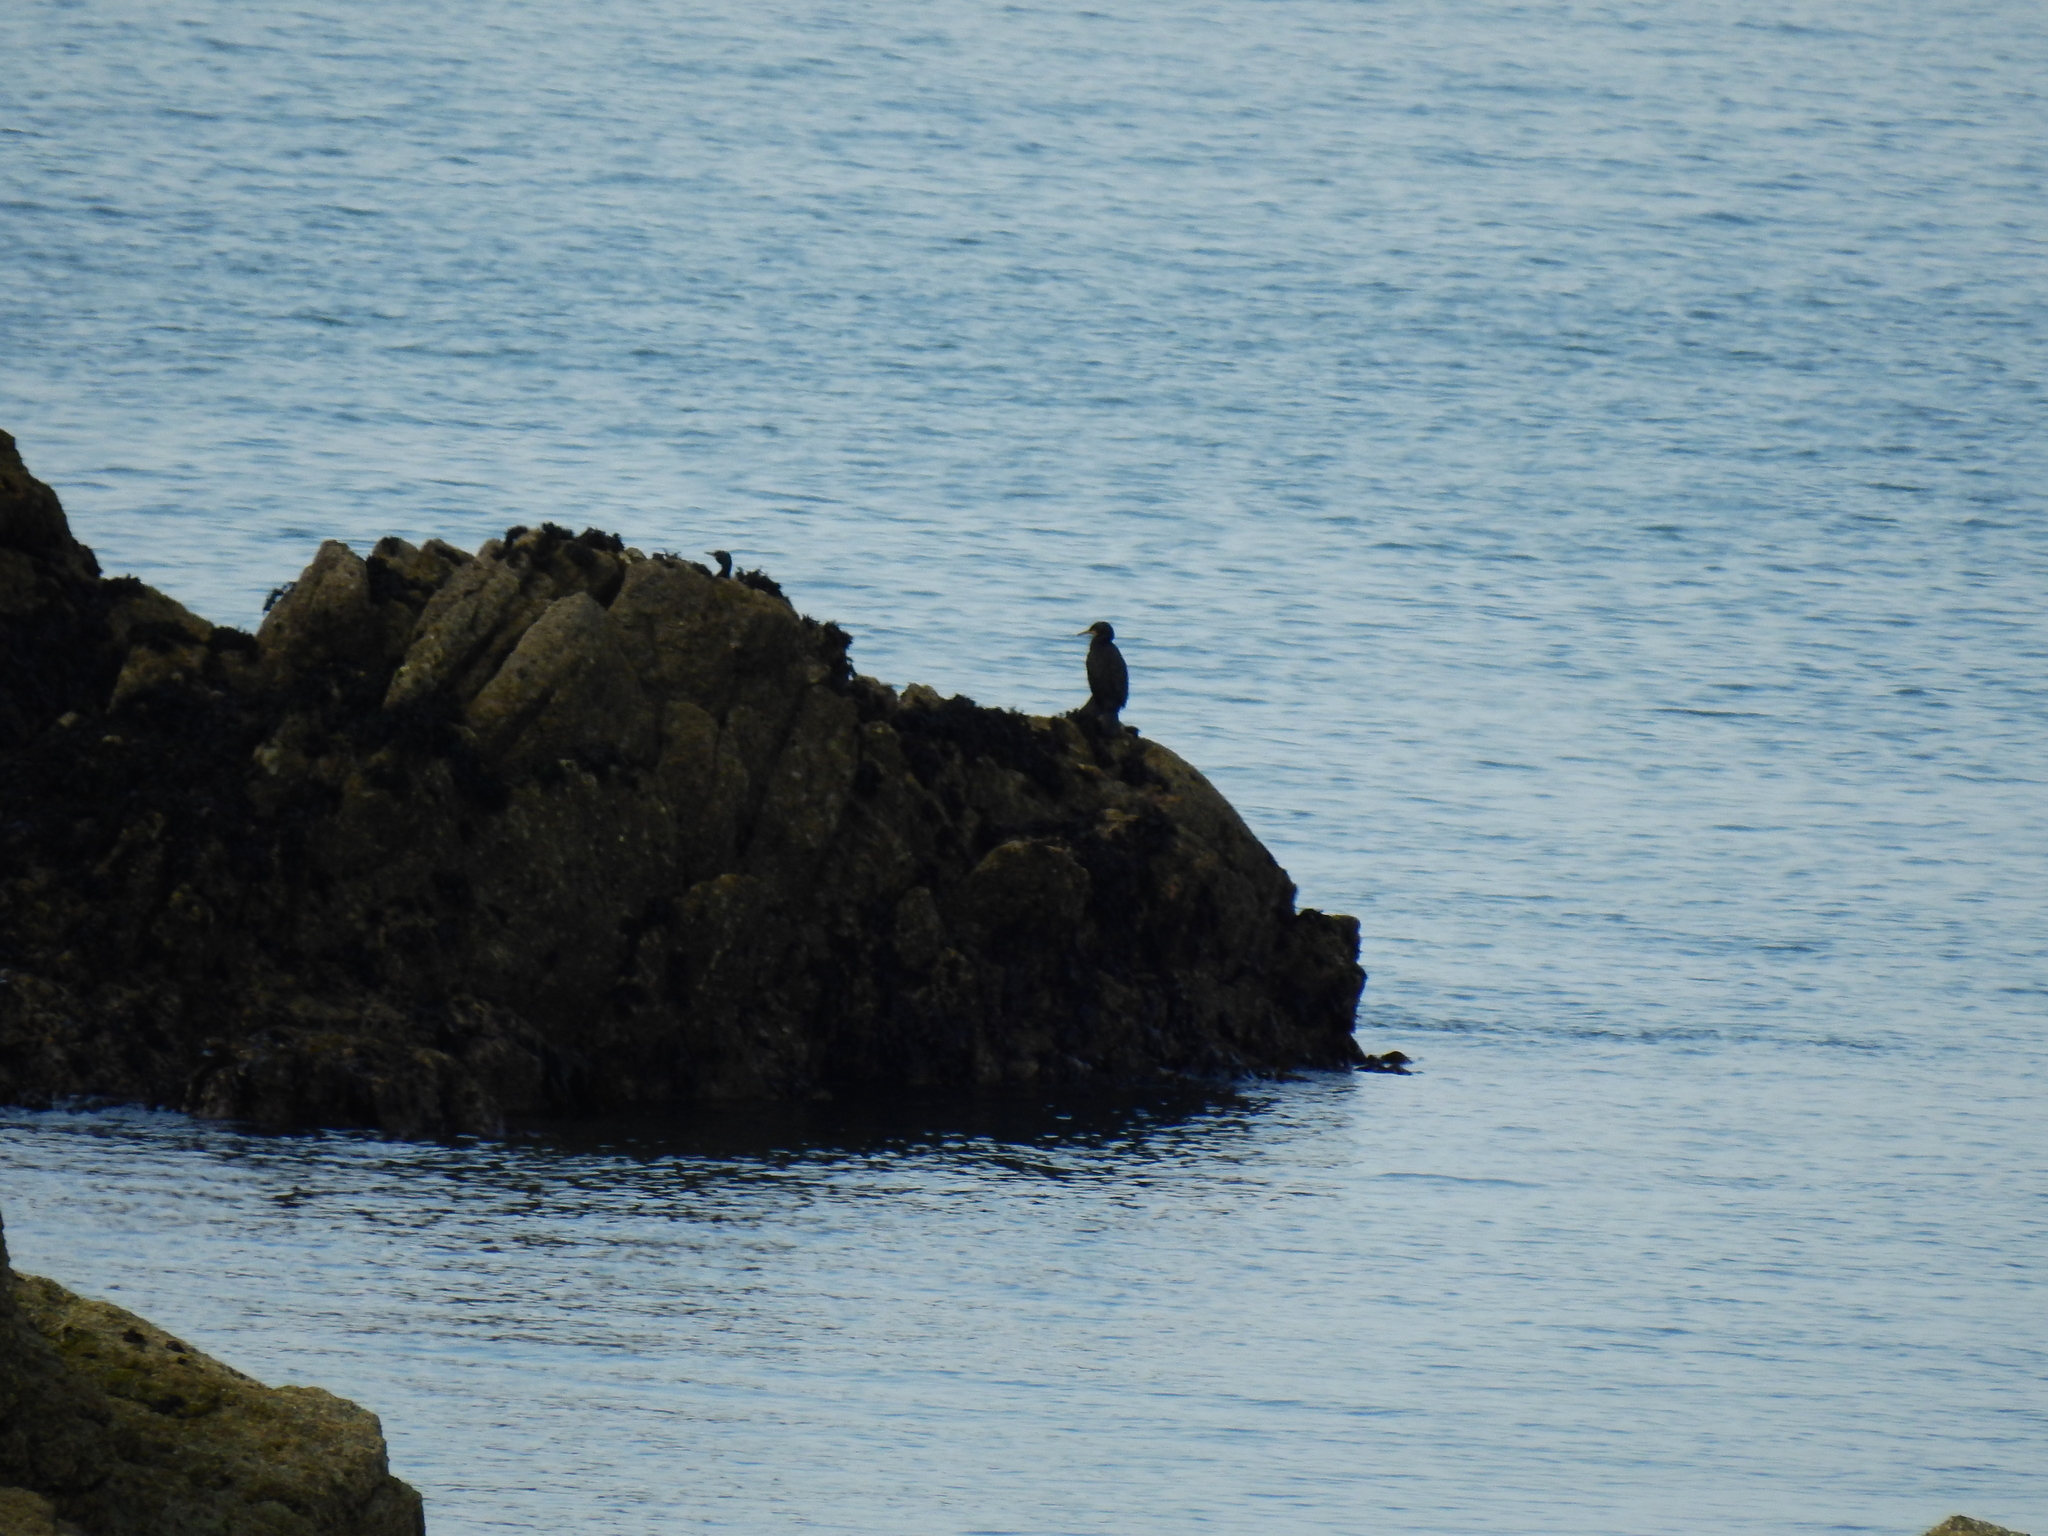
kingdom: Animalia
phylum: Chordata
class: Aves
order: Suliformes
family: Phalacrocoracidae
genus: Phalacrocorax
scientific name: Phalacrocorax aristotelis
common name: European shag
